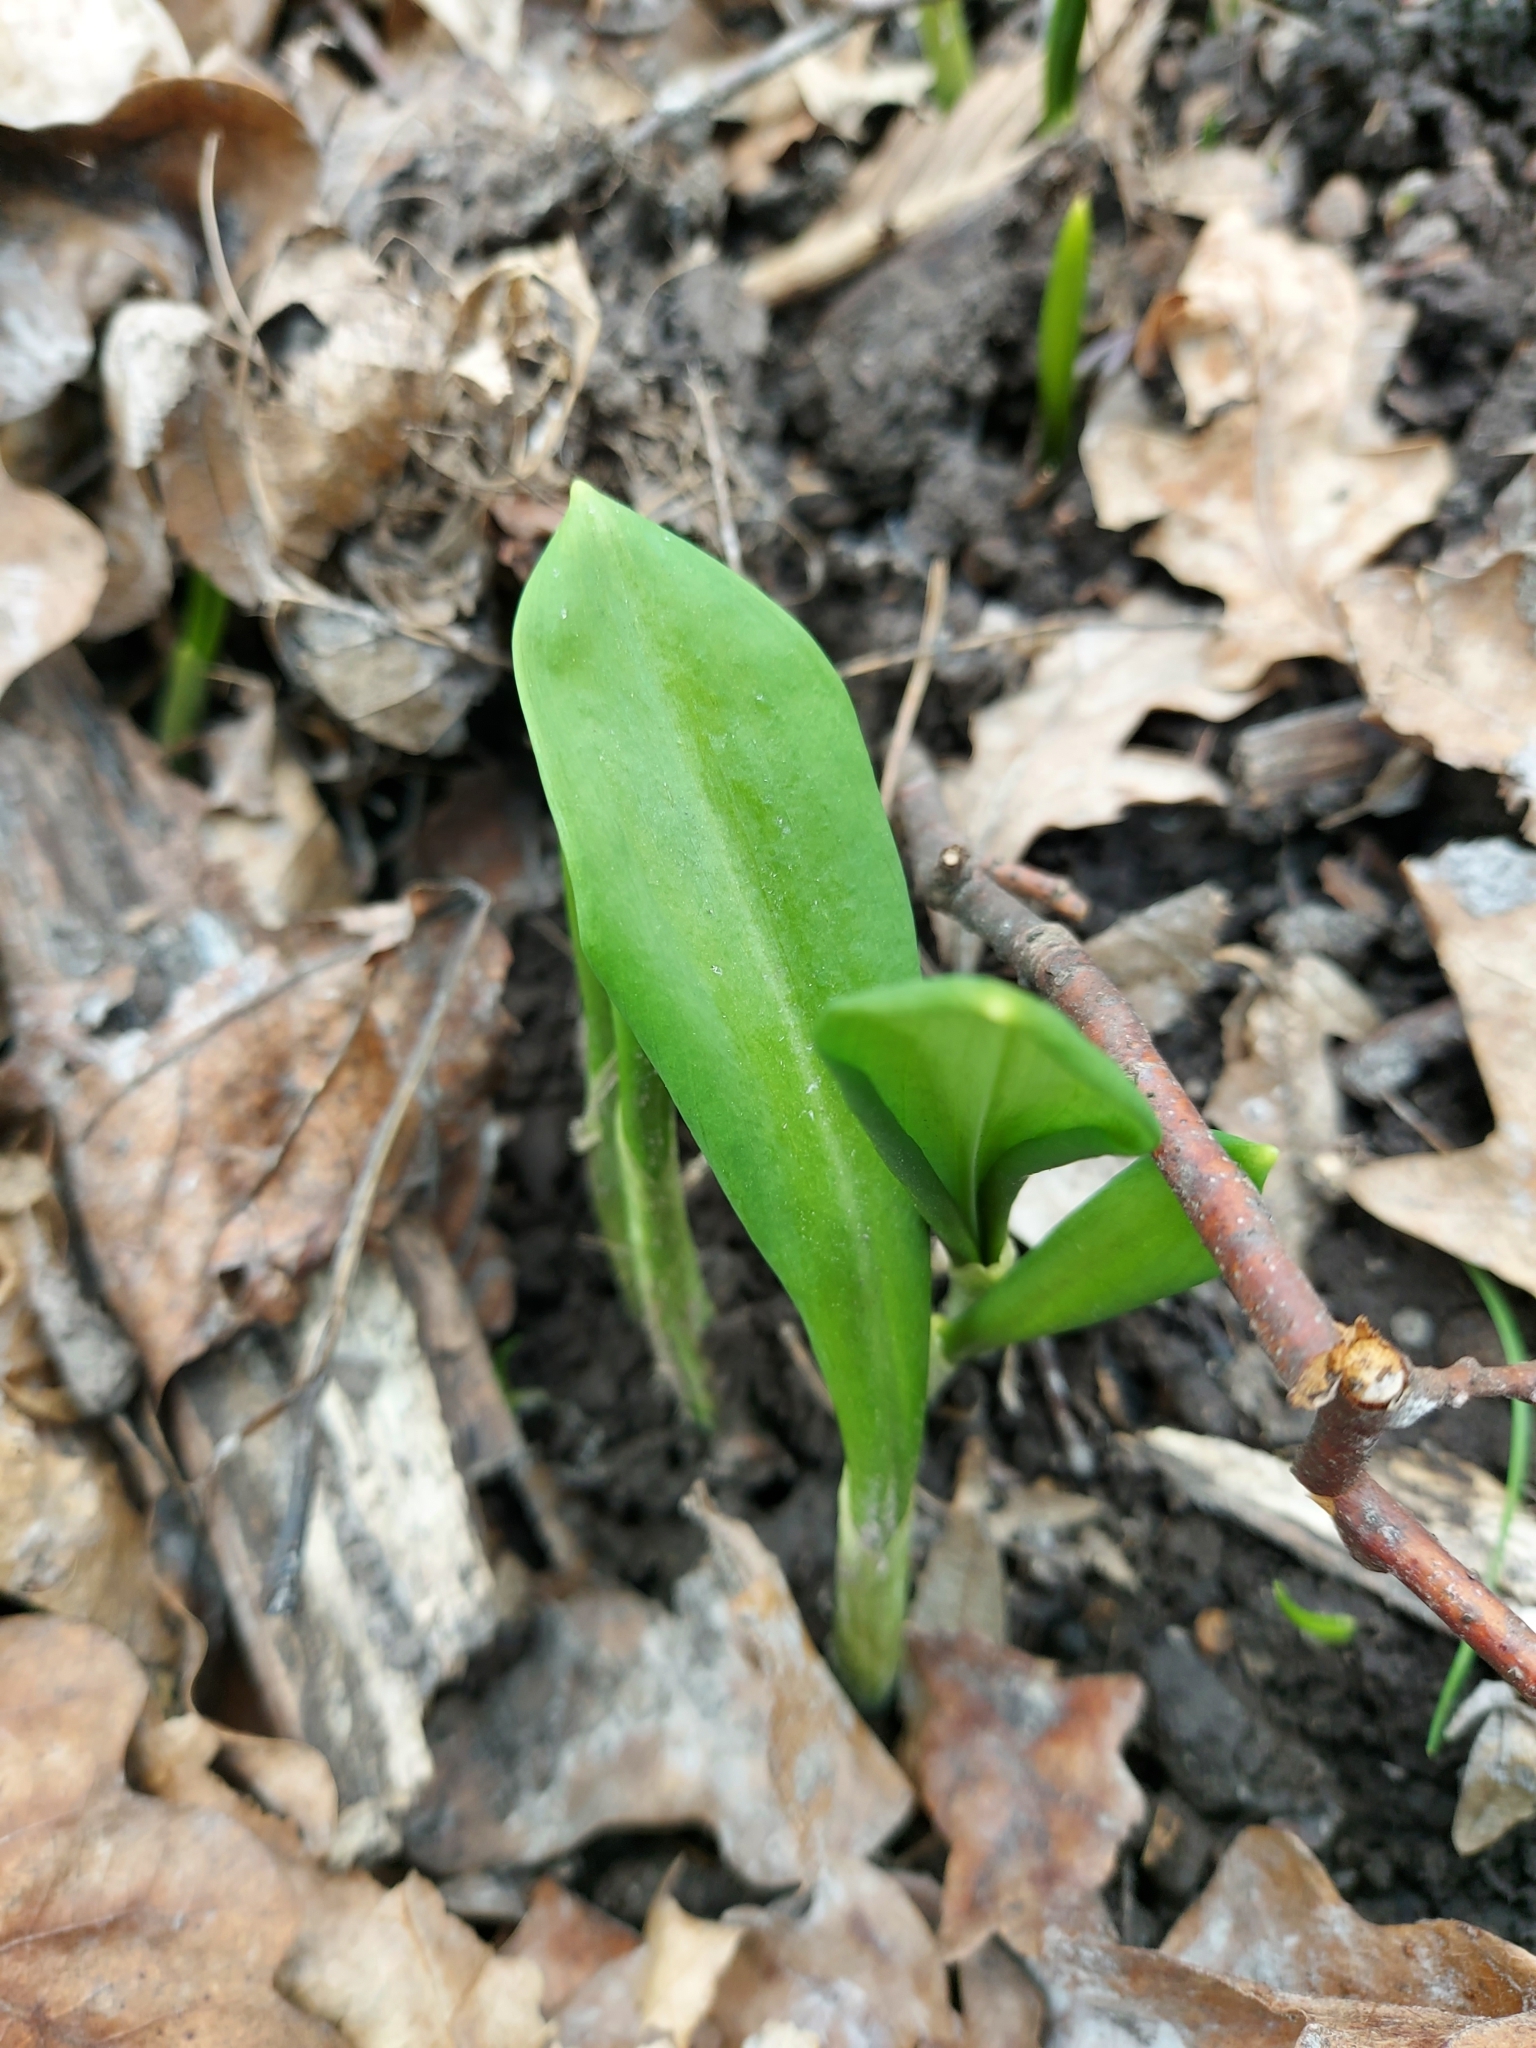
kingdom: Plantae
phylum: Tracheophyta
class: Liliopsida
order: Asparagales
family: Amaryllidaceae
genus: Allium
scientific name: Allium ursinum
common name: Ramsons
